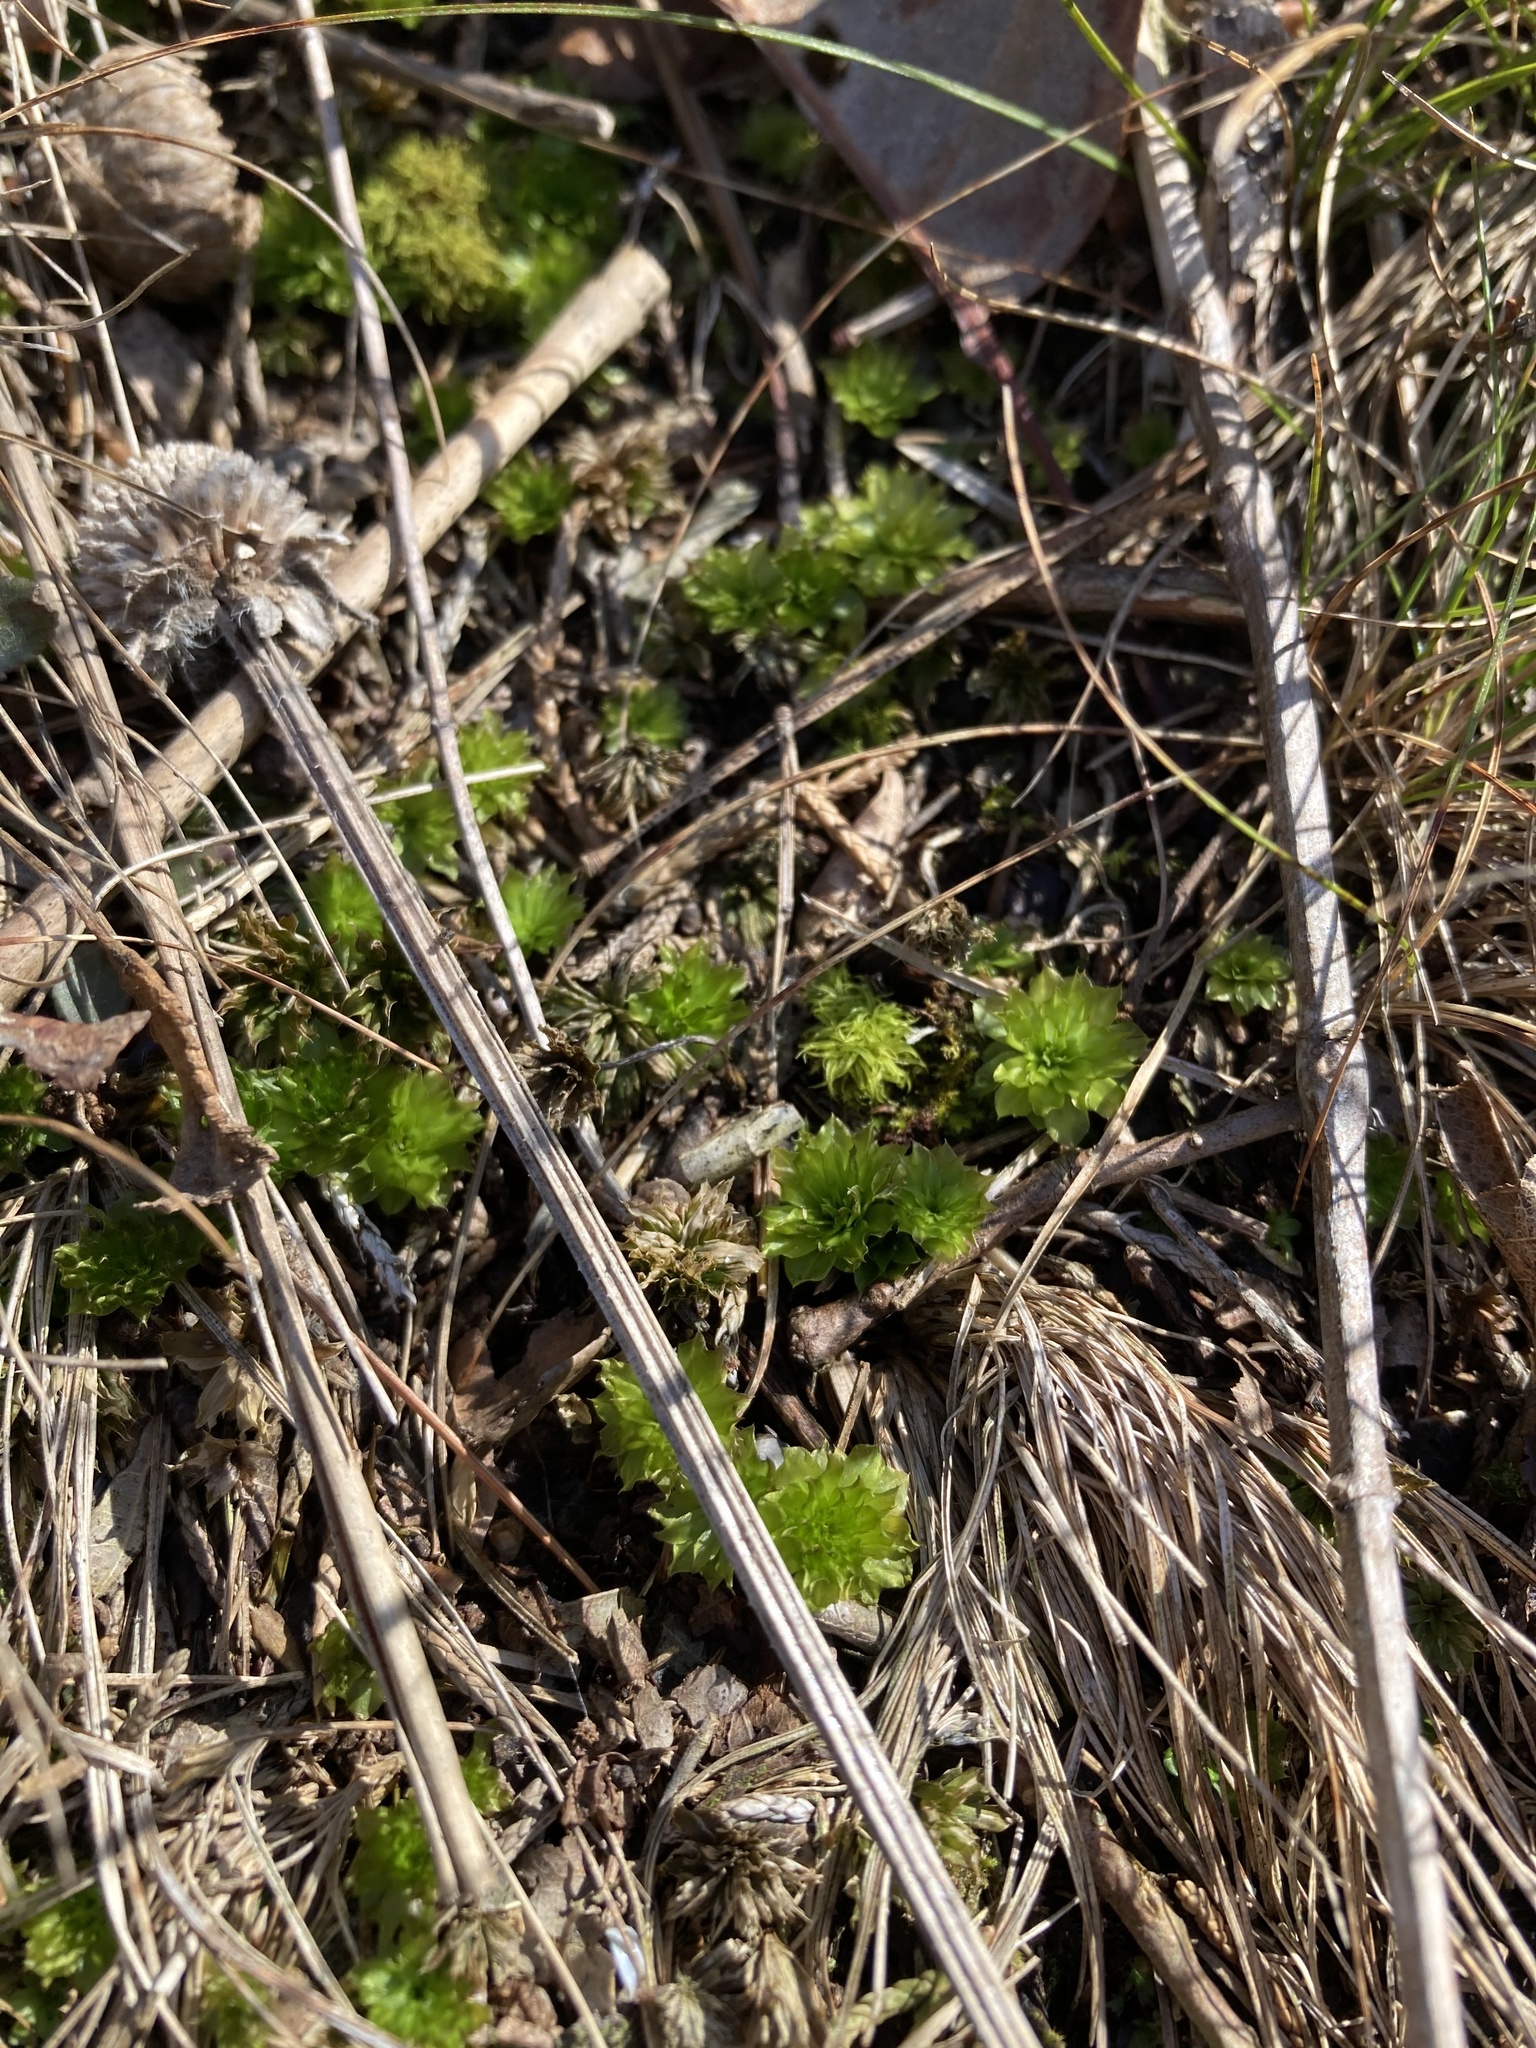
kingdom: Plantae
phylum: Bryophyta
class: Bryopsida
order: Bryales
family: Bryaceae
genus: Rhodobryum
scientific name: Rhodobryum ontariense
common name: Ontario rhodobryum moss
